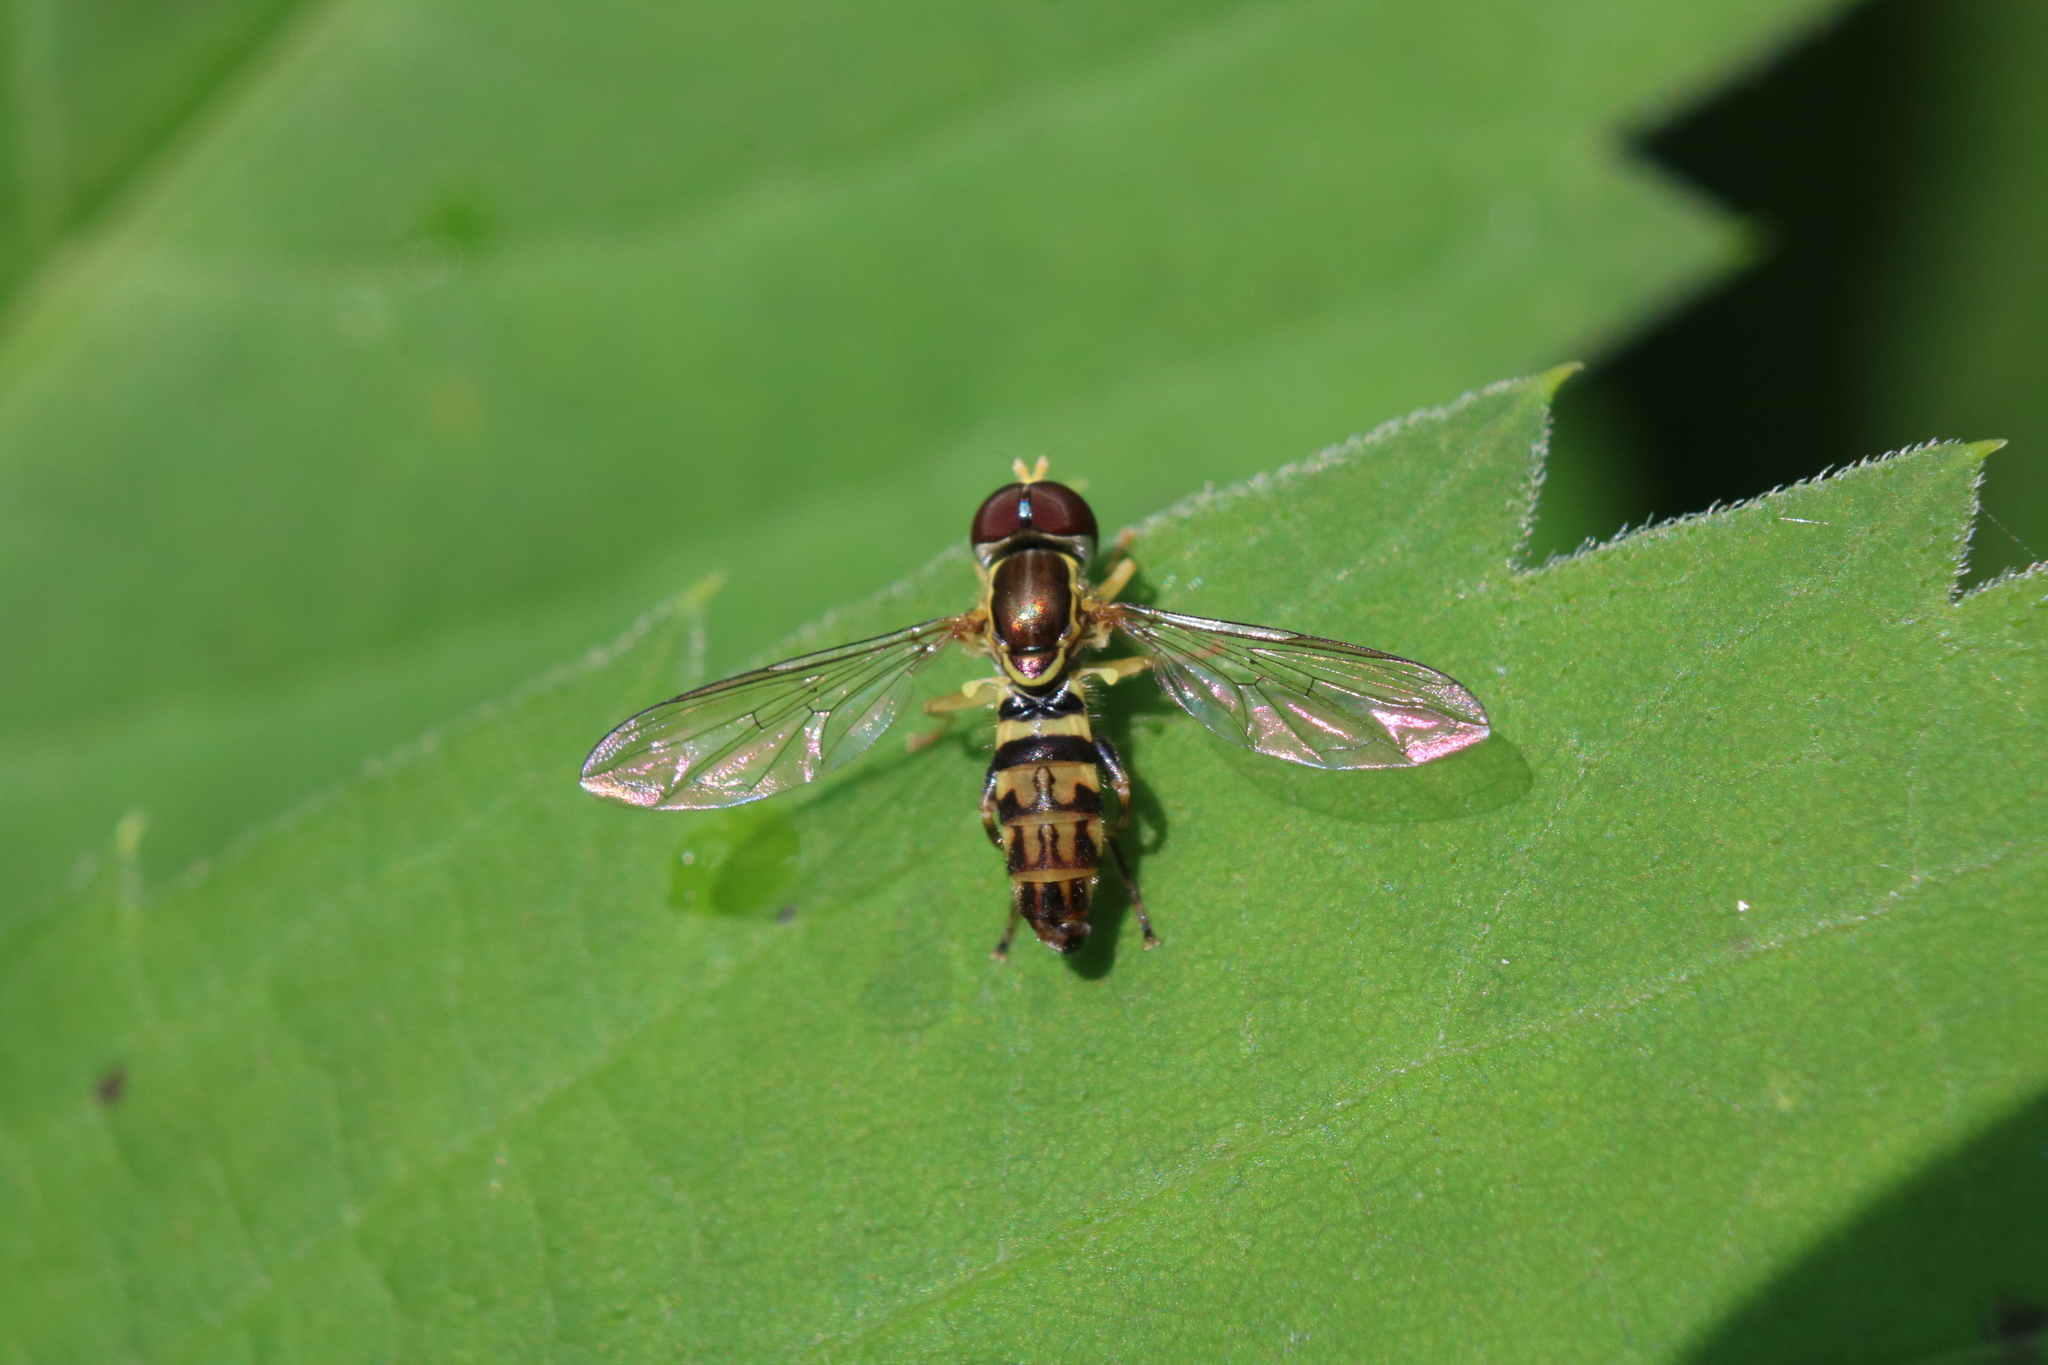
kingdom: Animalia
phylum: Arthropoda
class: Insecta
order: Diptera
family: Syrphidae
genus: Toxomerus
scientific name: Toxomerus geminatus
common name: Eastern calligrapher
